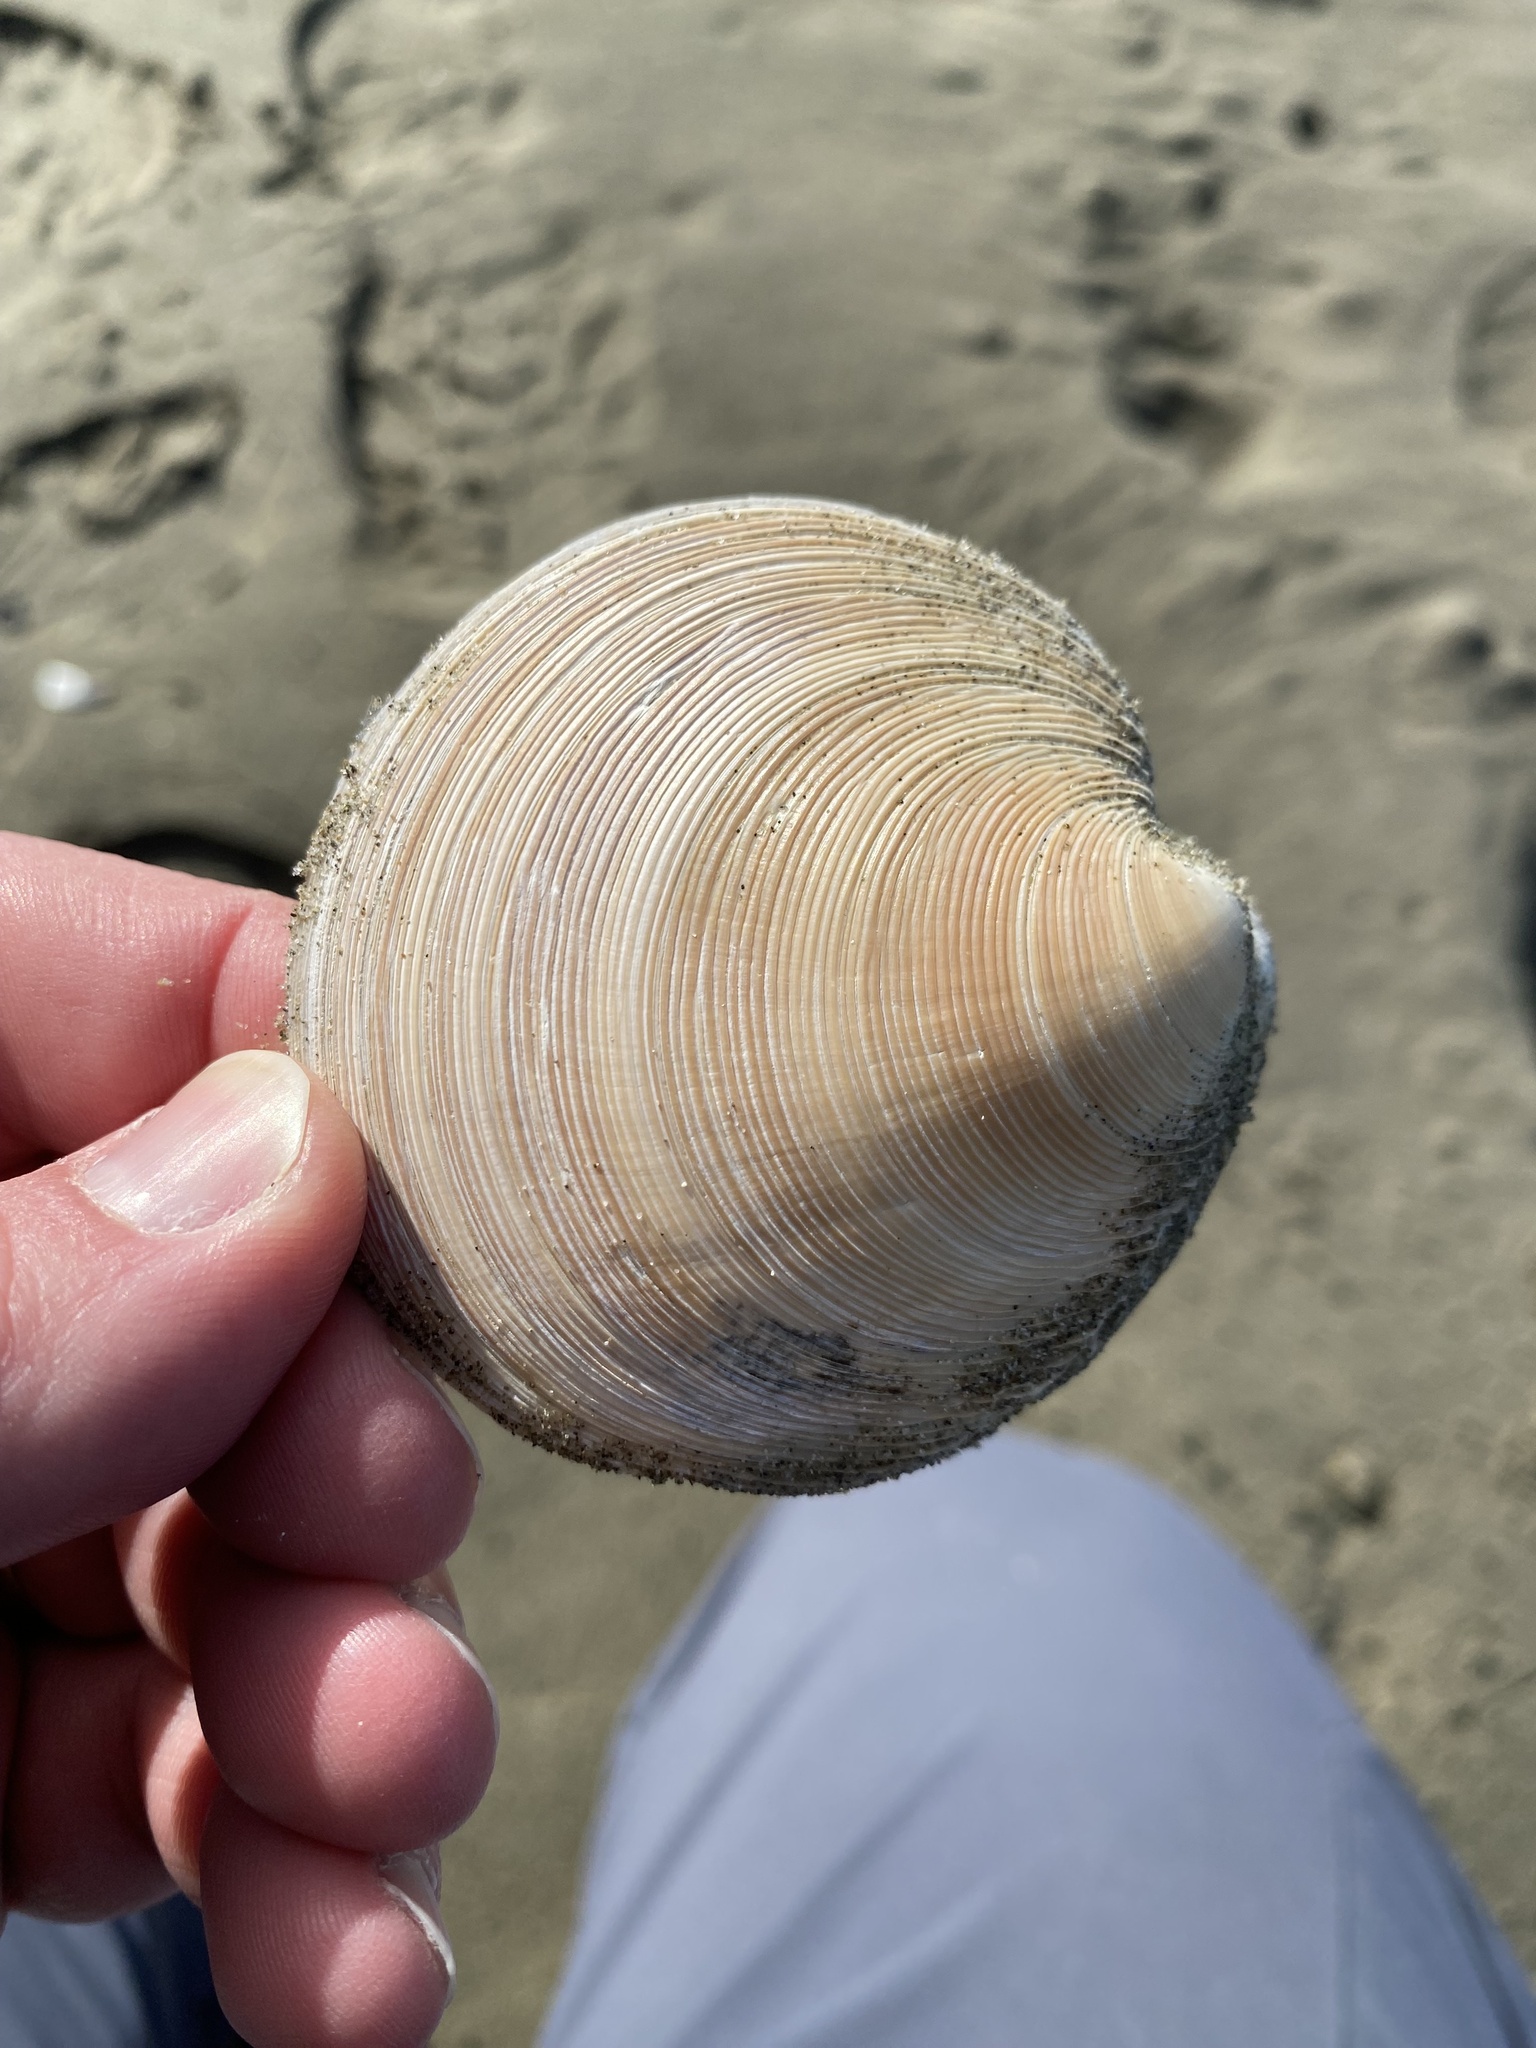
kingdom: Animalia
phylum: Mollusca
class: Bivalvia
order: Venerida
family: Veneridae
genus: Dosinia
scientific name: Dosinia anus
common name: Old-woman dosinia
